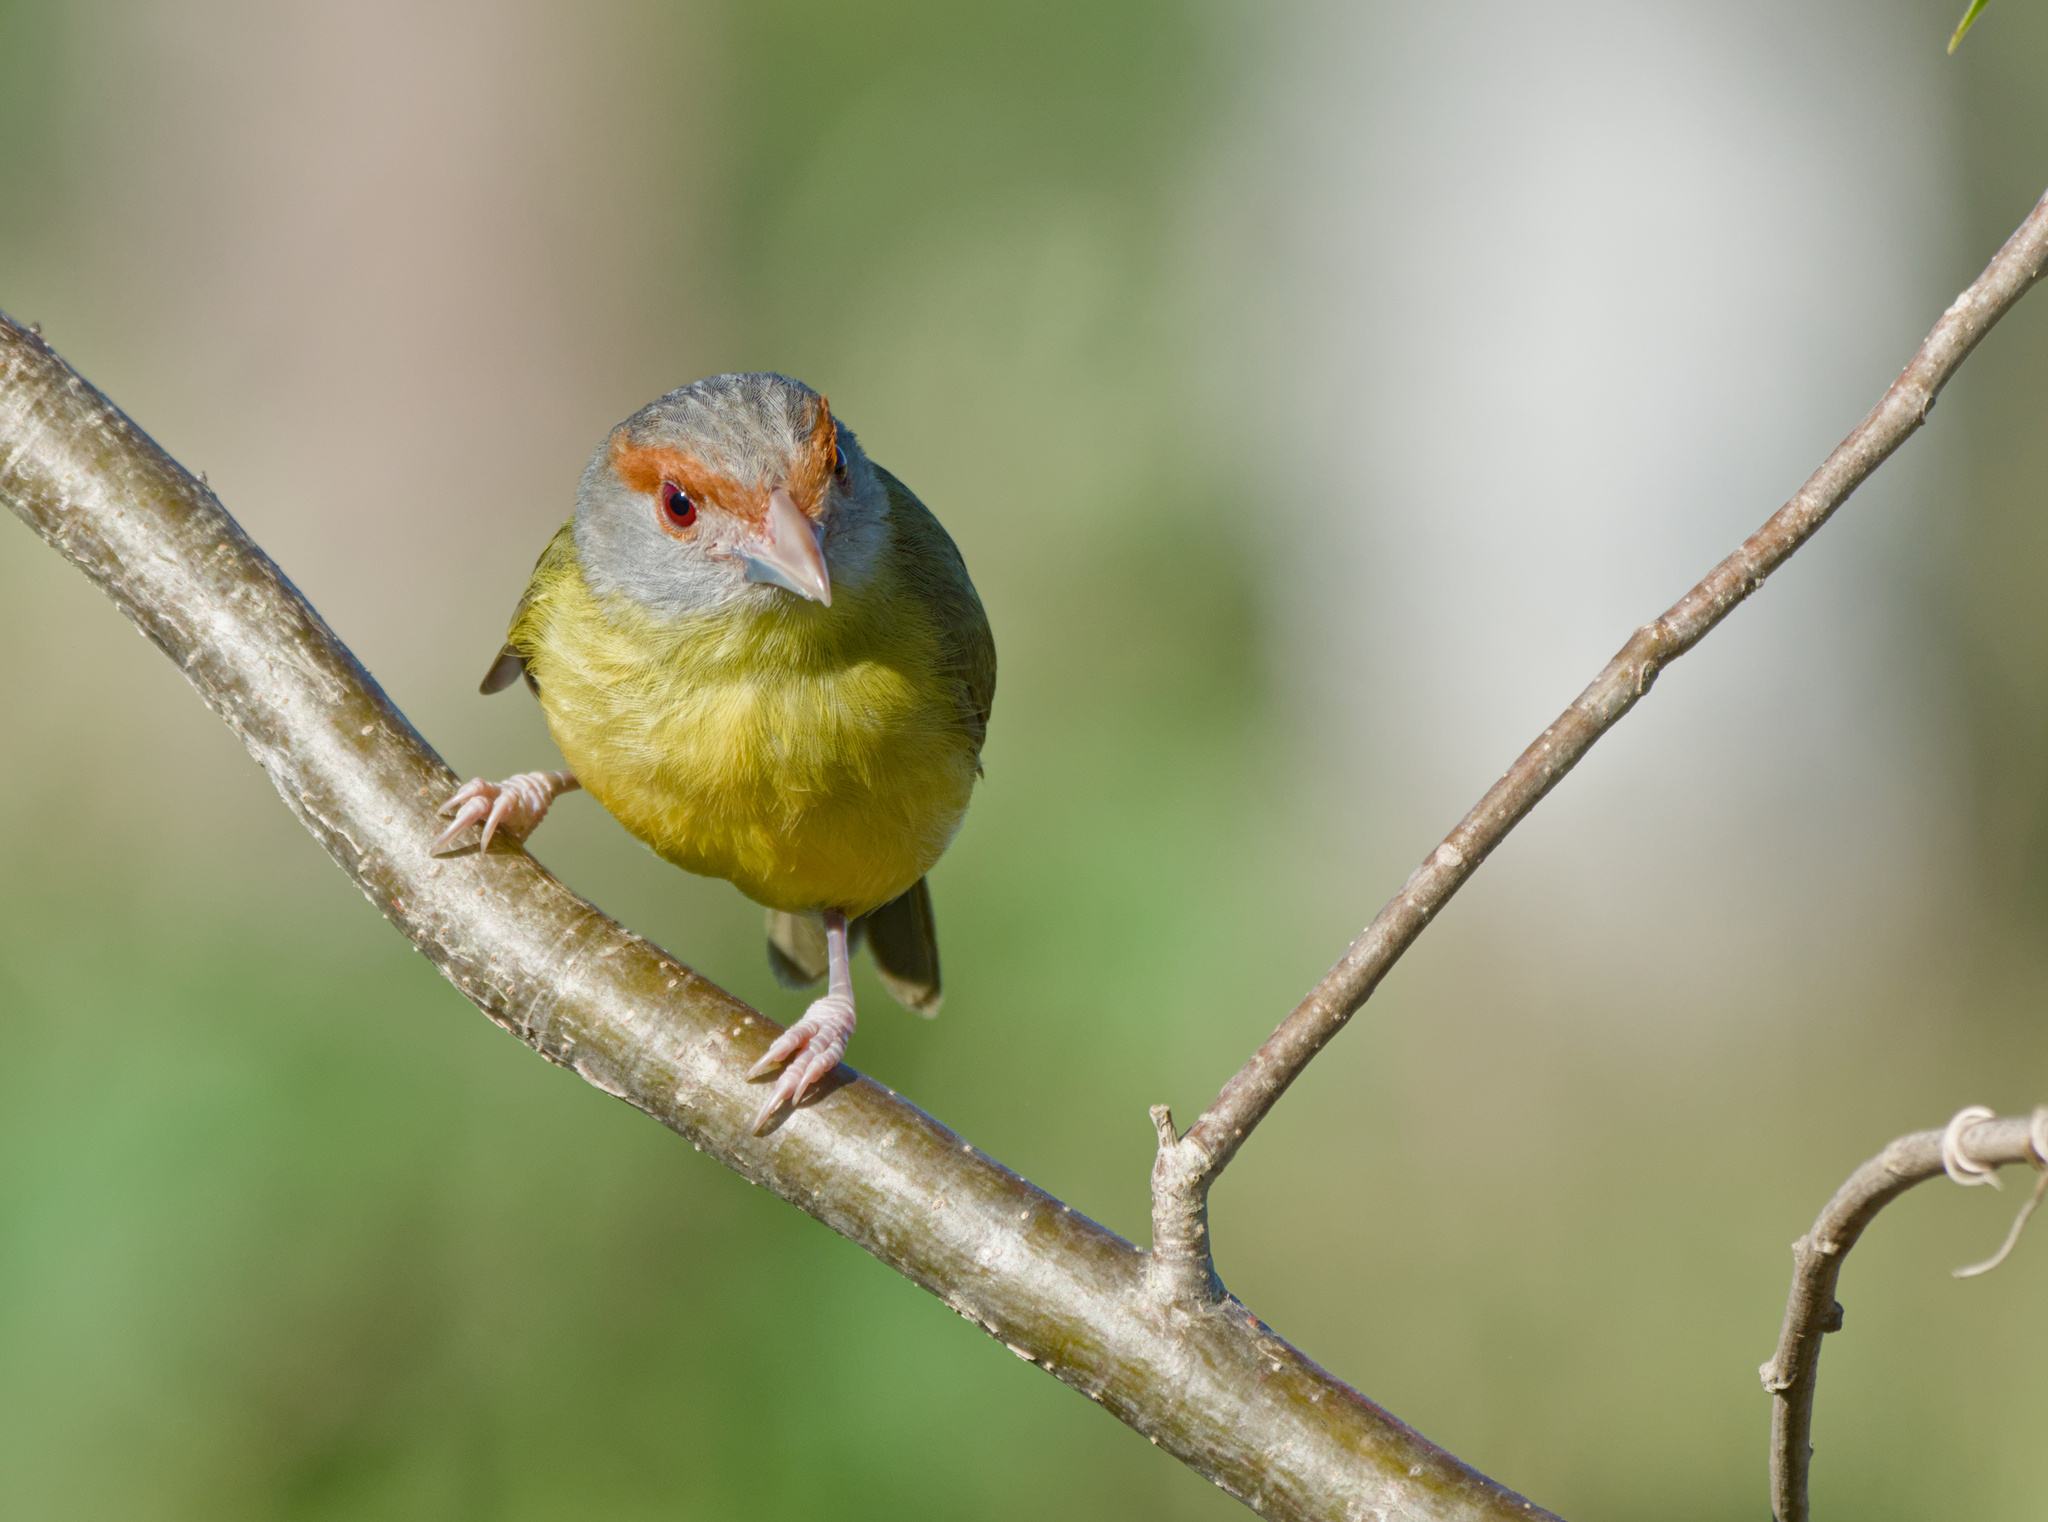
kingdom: Animalia
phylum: Chordata
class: Aves
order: Passeriformes
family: Vireonidae
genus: Cyclarhis
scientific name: Cyclarhis gujanensis
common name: Rufous-browed peppershrike
